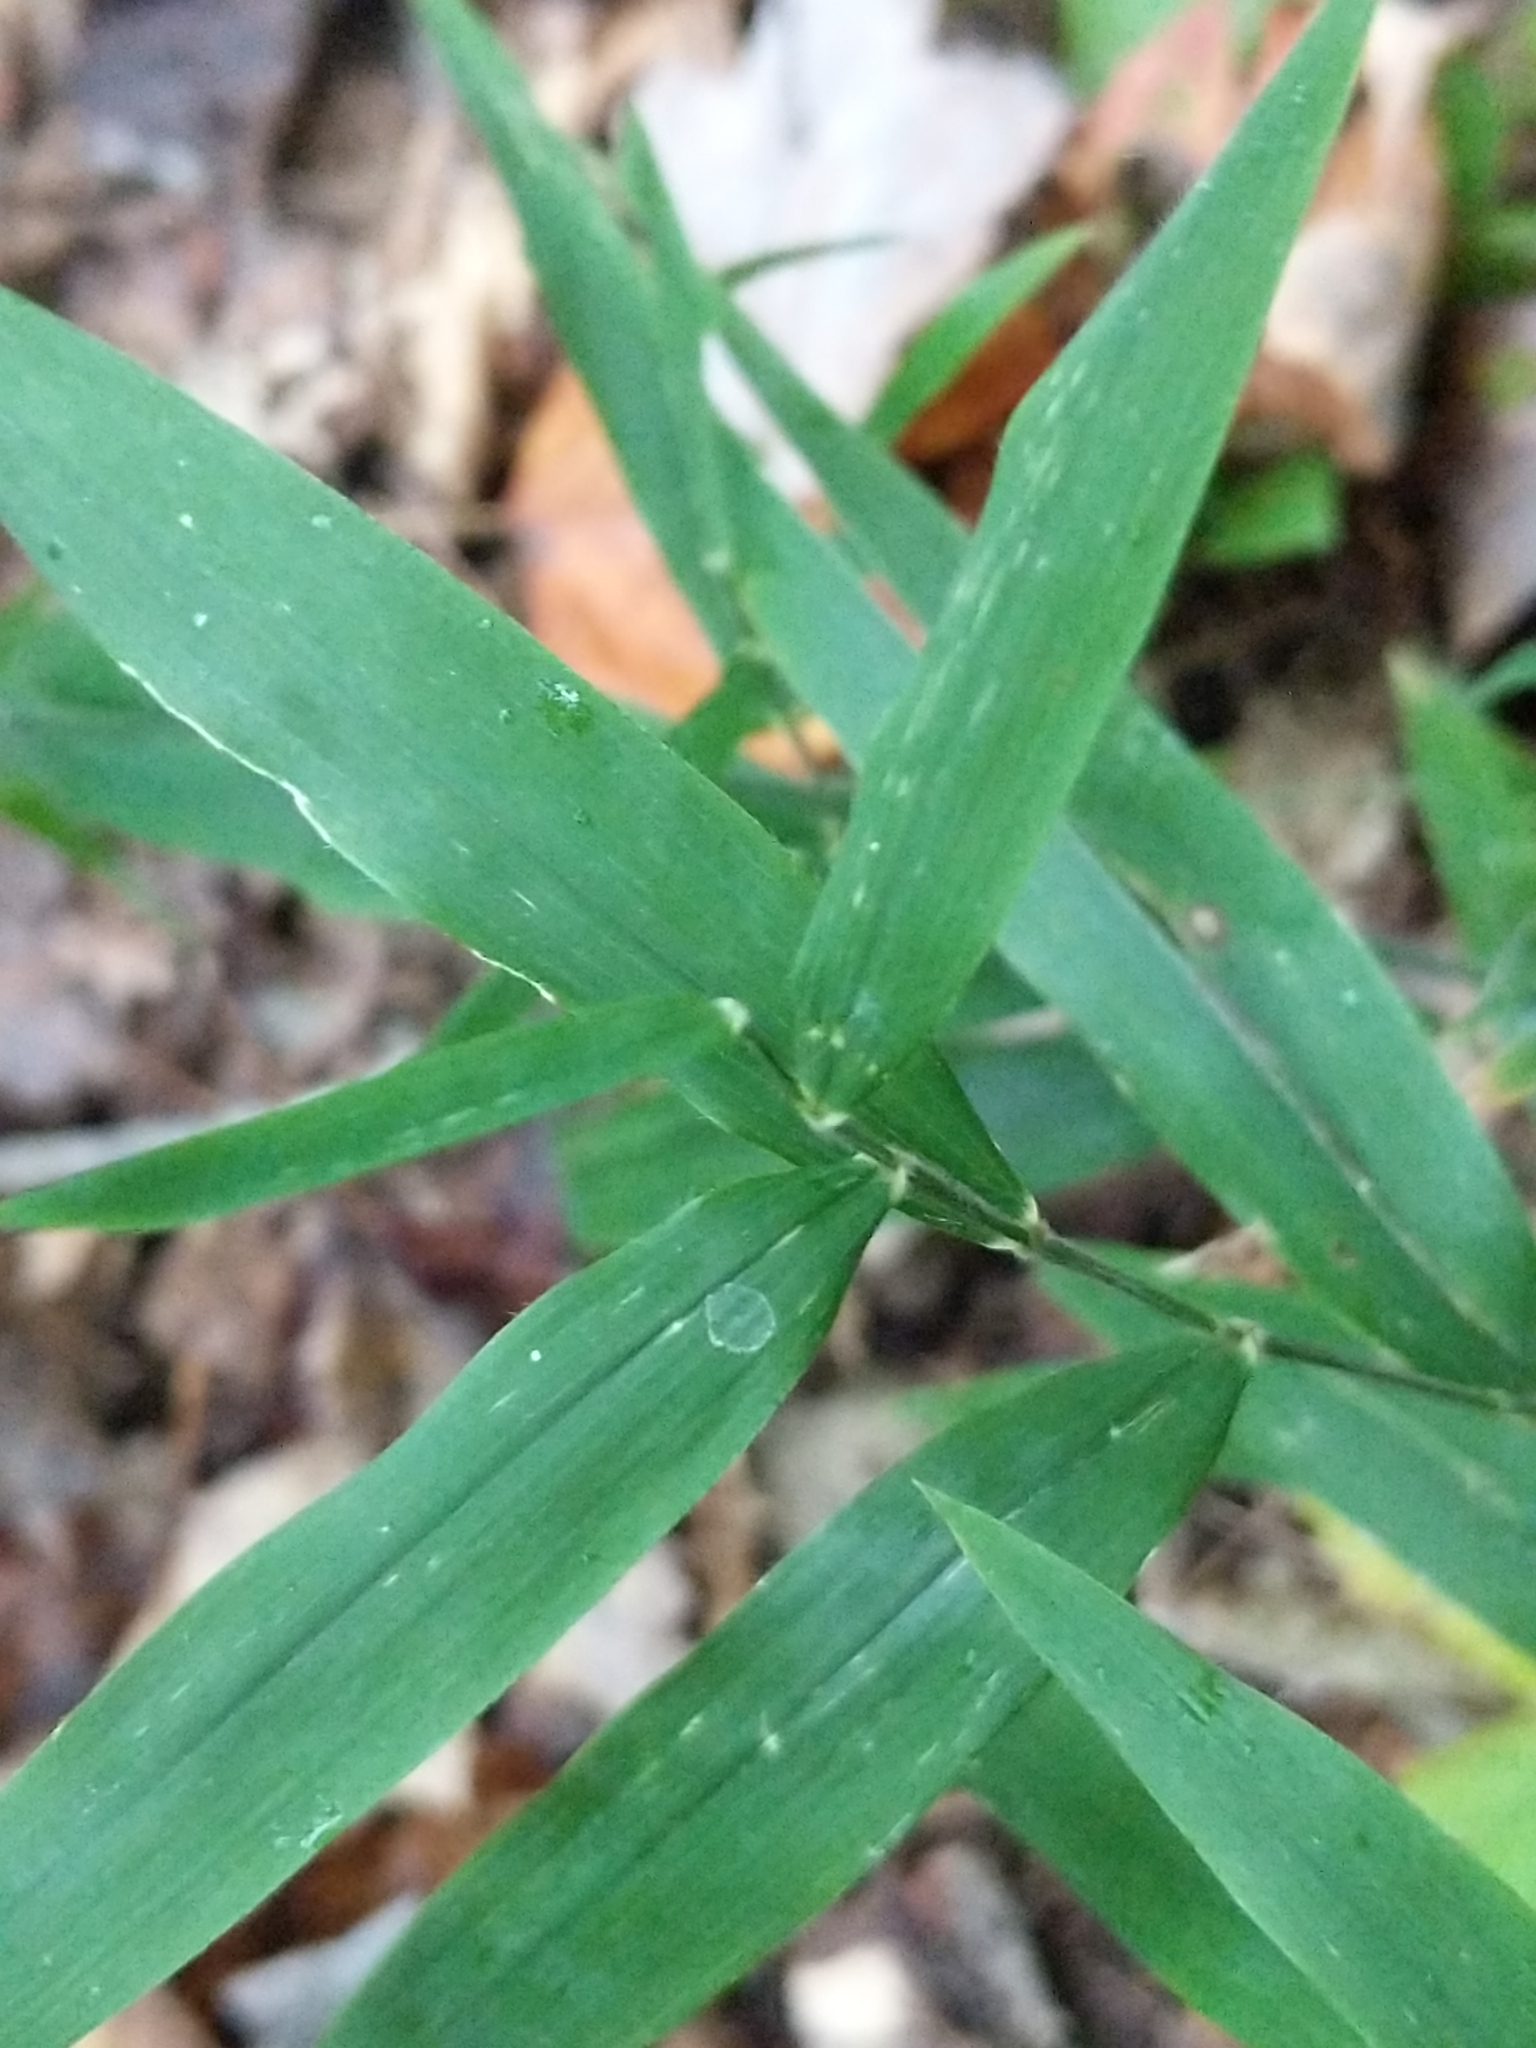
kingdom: Plantae
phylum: Tracheophyta
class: Liliopsida
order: Poales
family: Poaceae
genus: Brachyelytrum
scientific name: Brachyelytrum erectum
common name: Bearded shorthusk
